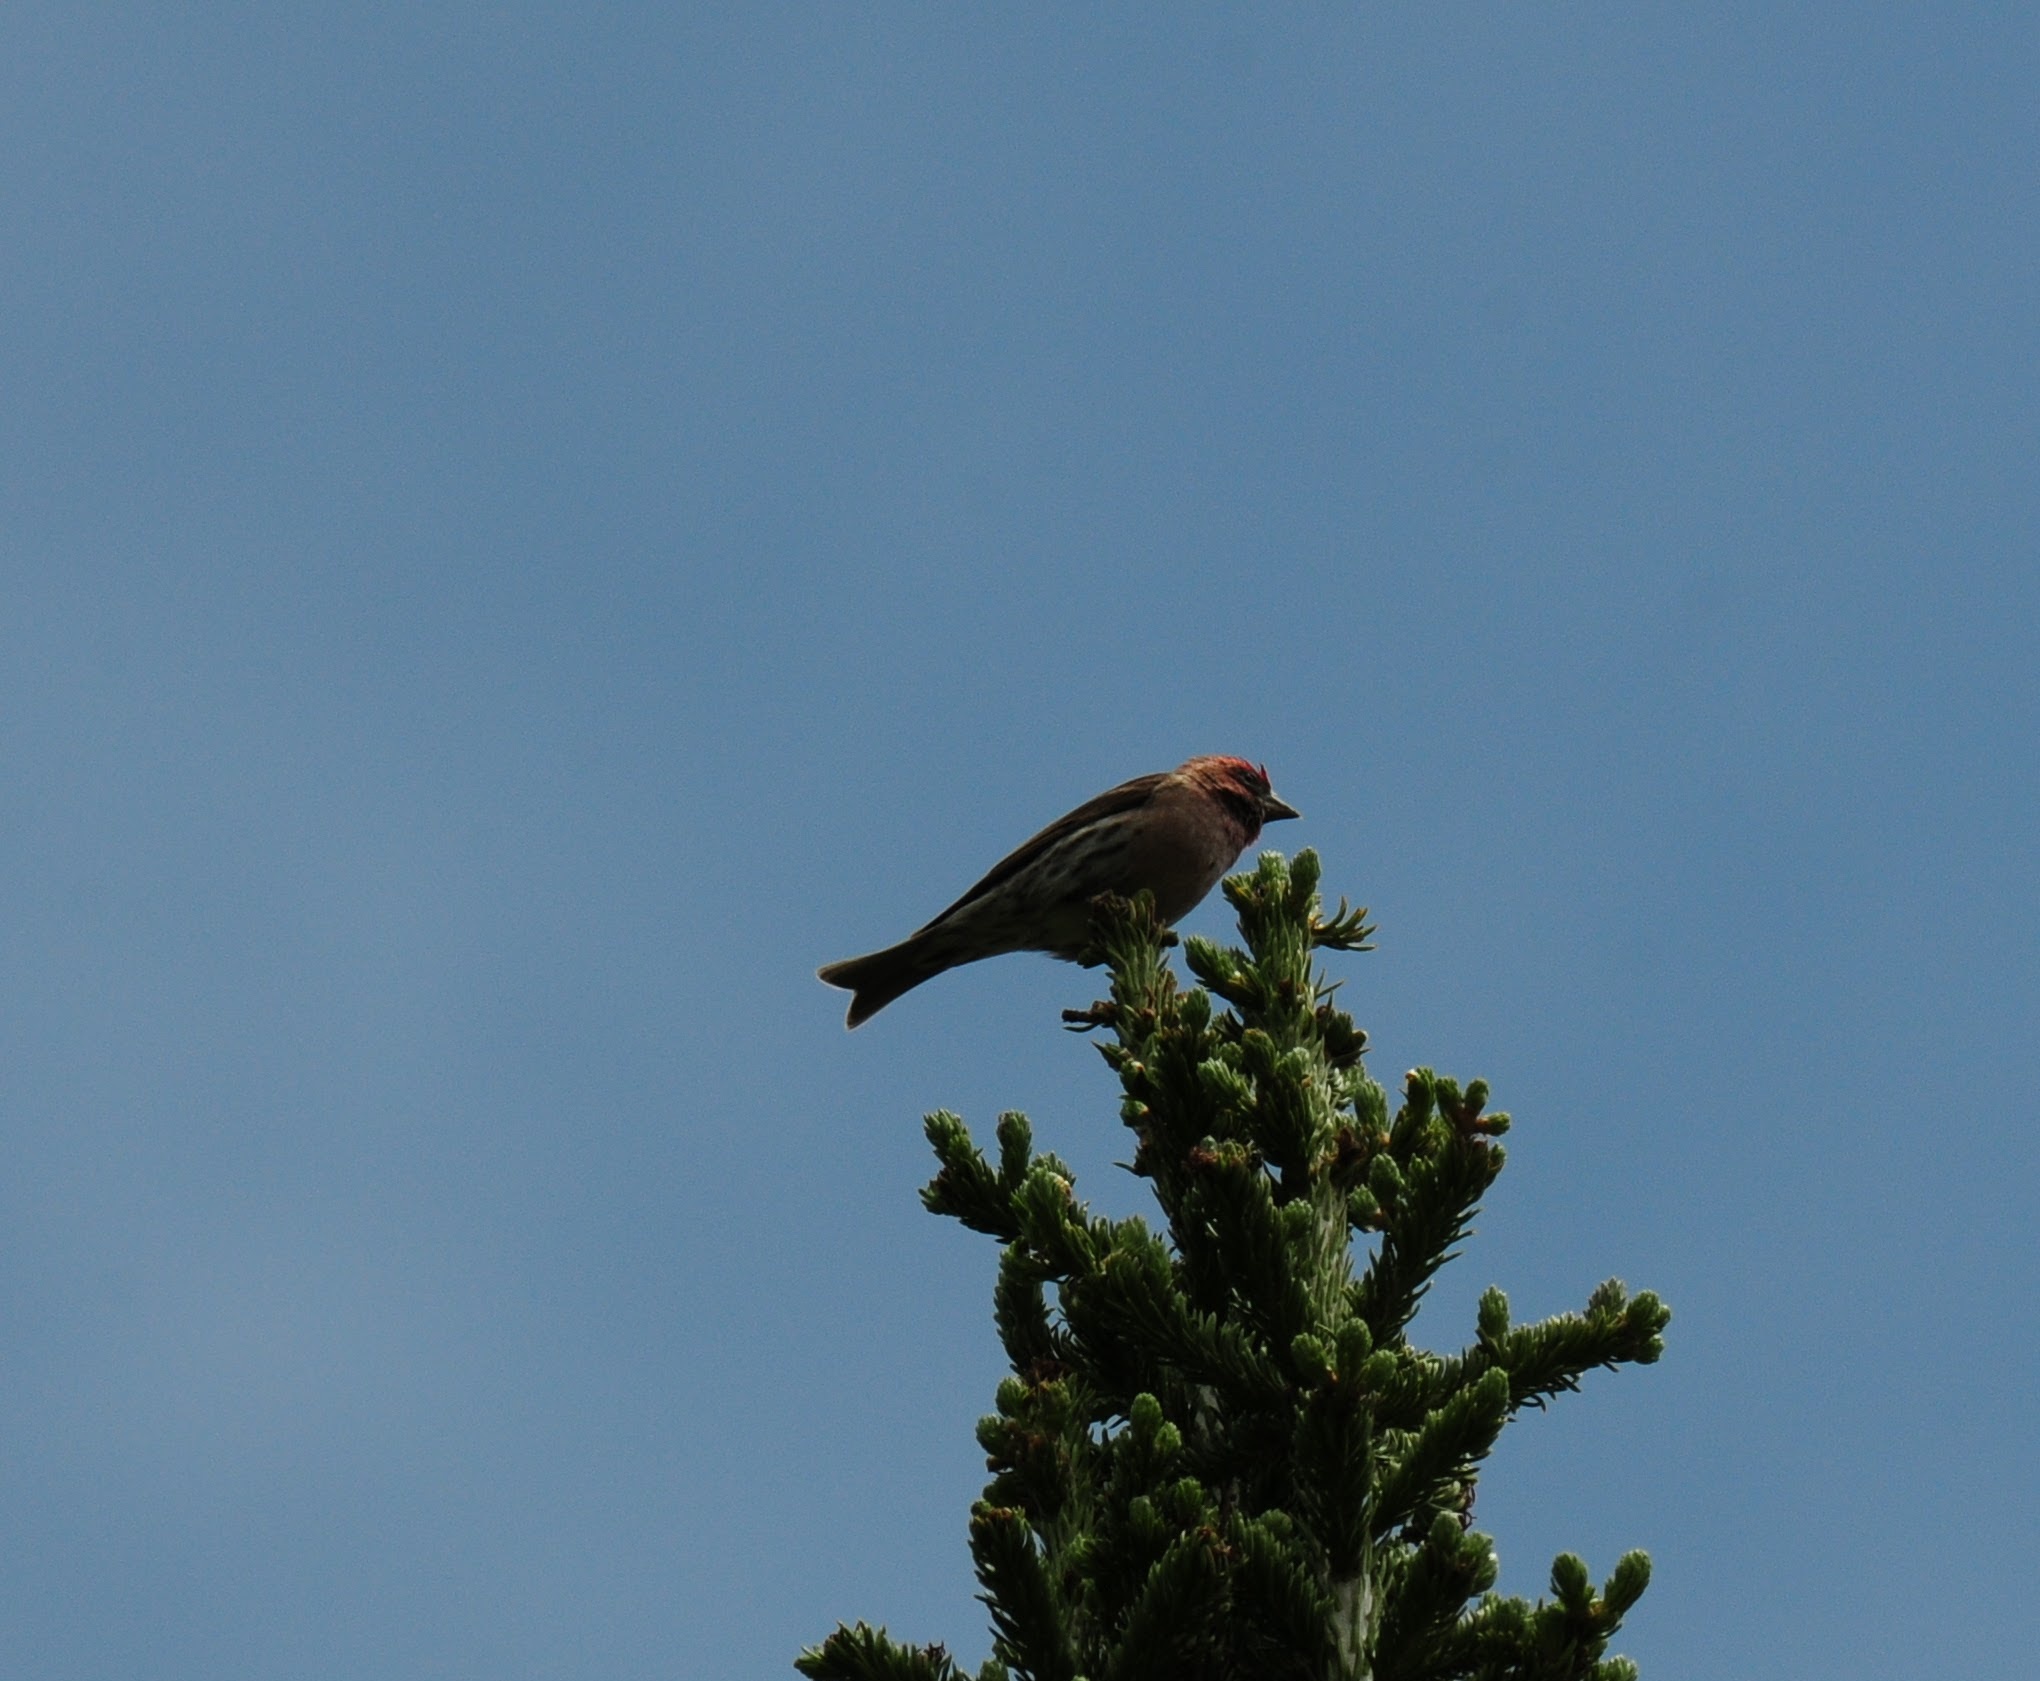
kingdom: Animalia
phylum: Chordata
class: Aves
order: Passeriformes
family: Fringillidae
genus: Haemorhous
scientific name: Haemorhous cassinii
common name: Cassin's finch
